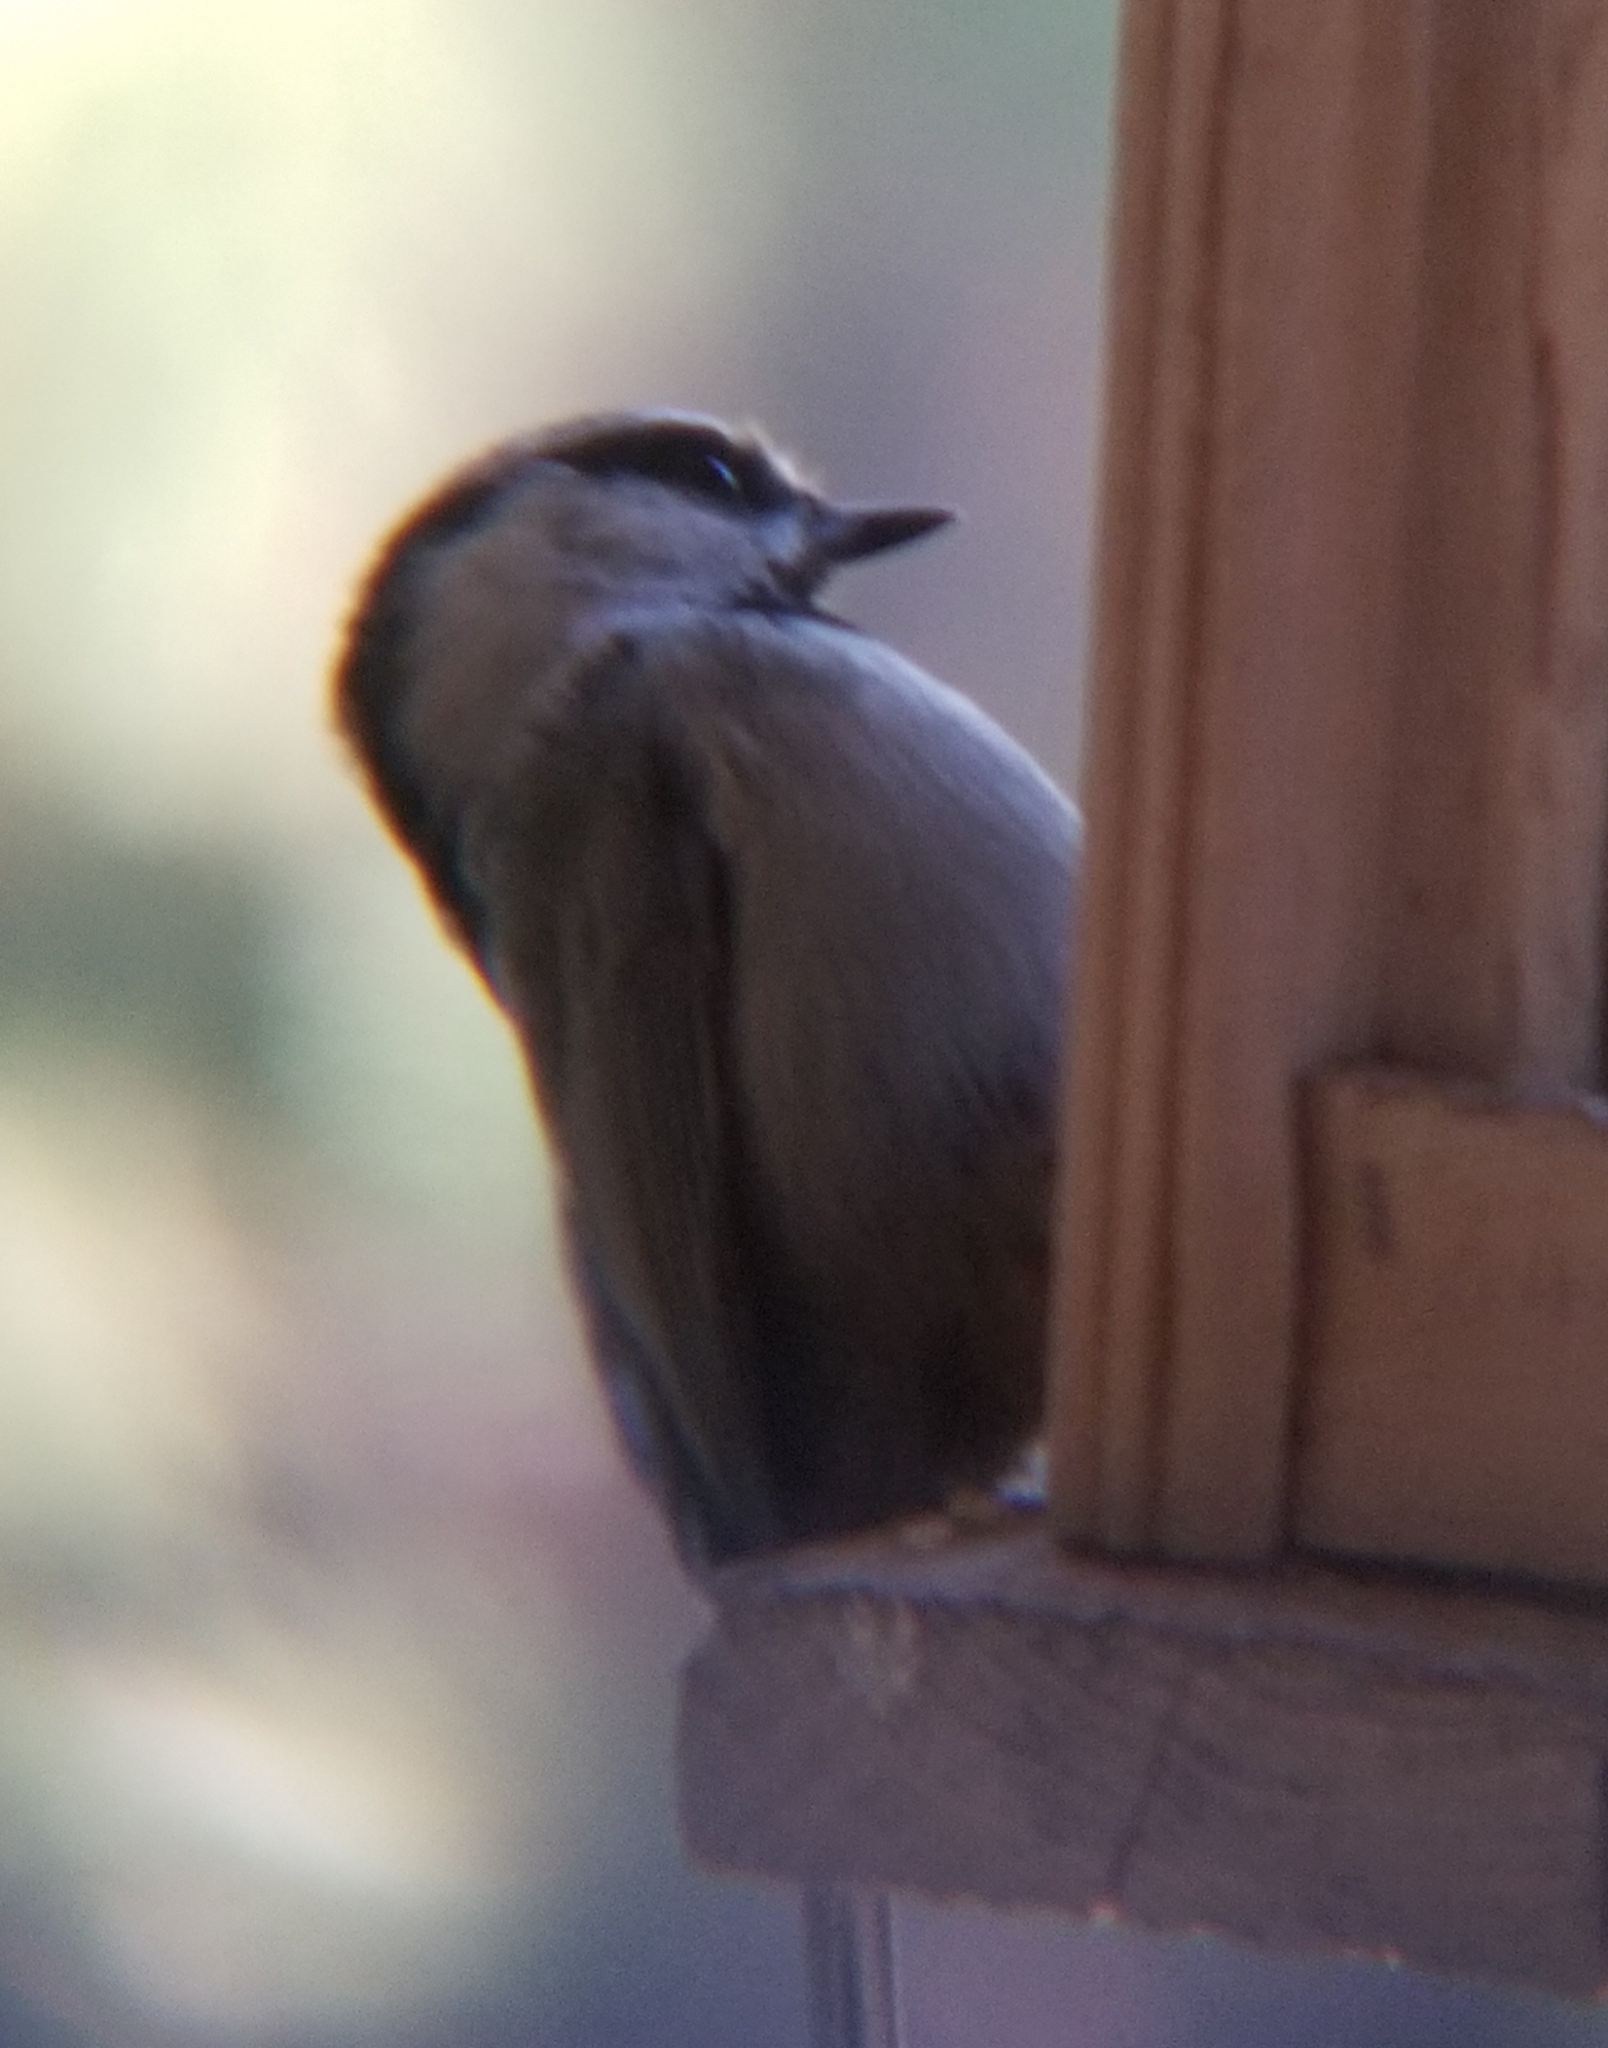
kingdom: Animalia
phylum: Chordata
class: Aves
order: Passeriformes
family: Paridae
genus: Poecile
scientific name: Poecile gambeli
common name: Mountain chickadee
